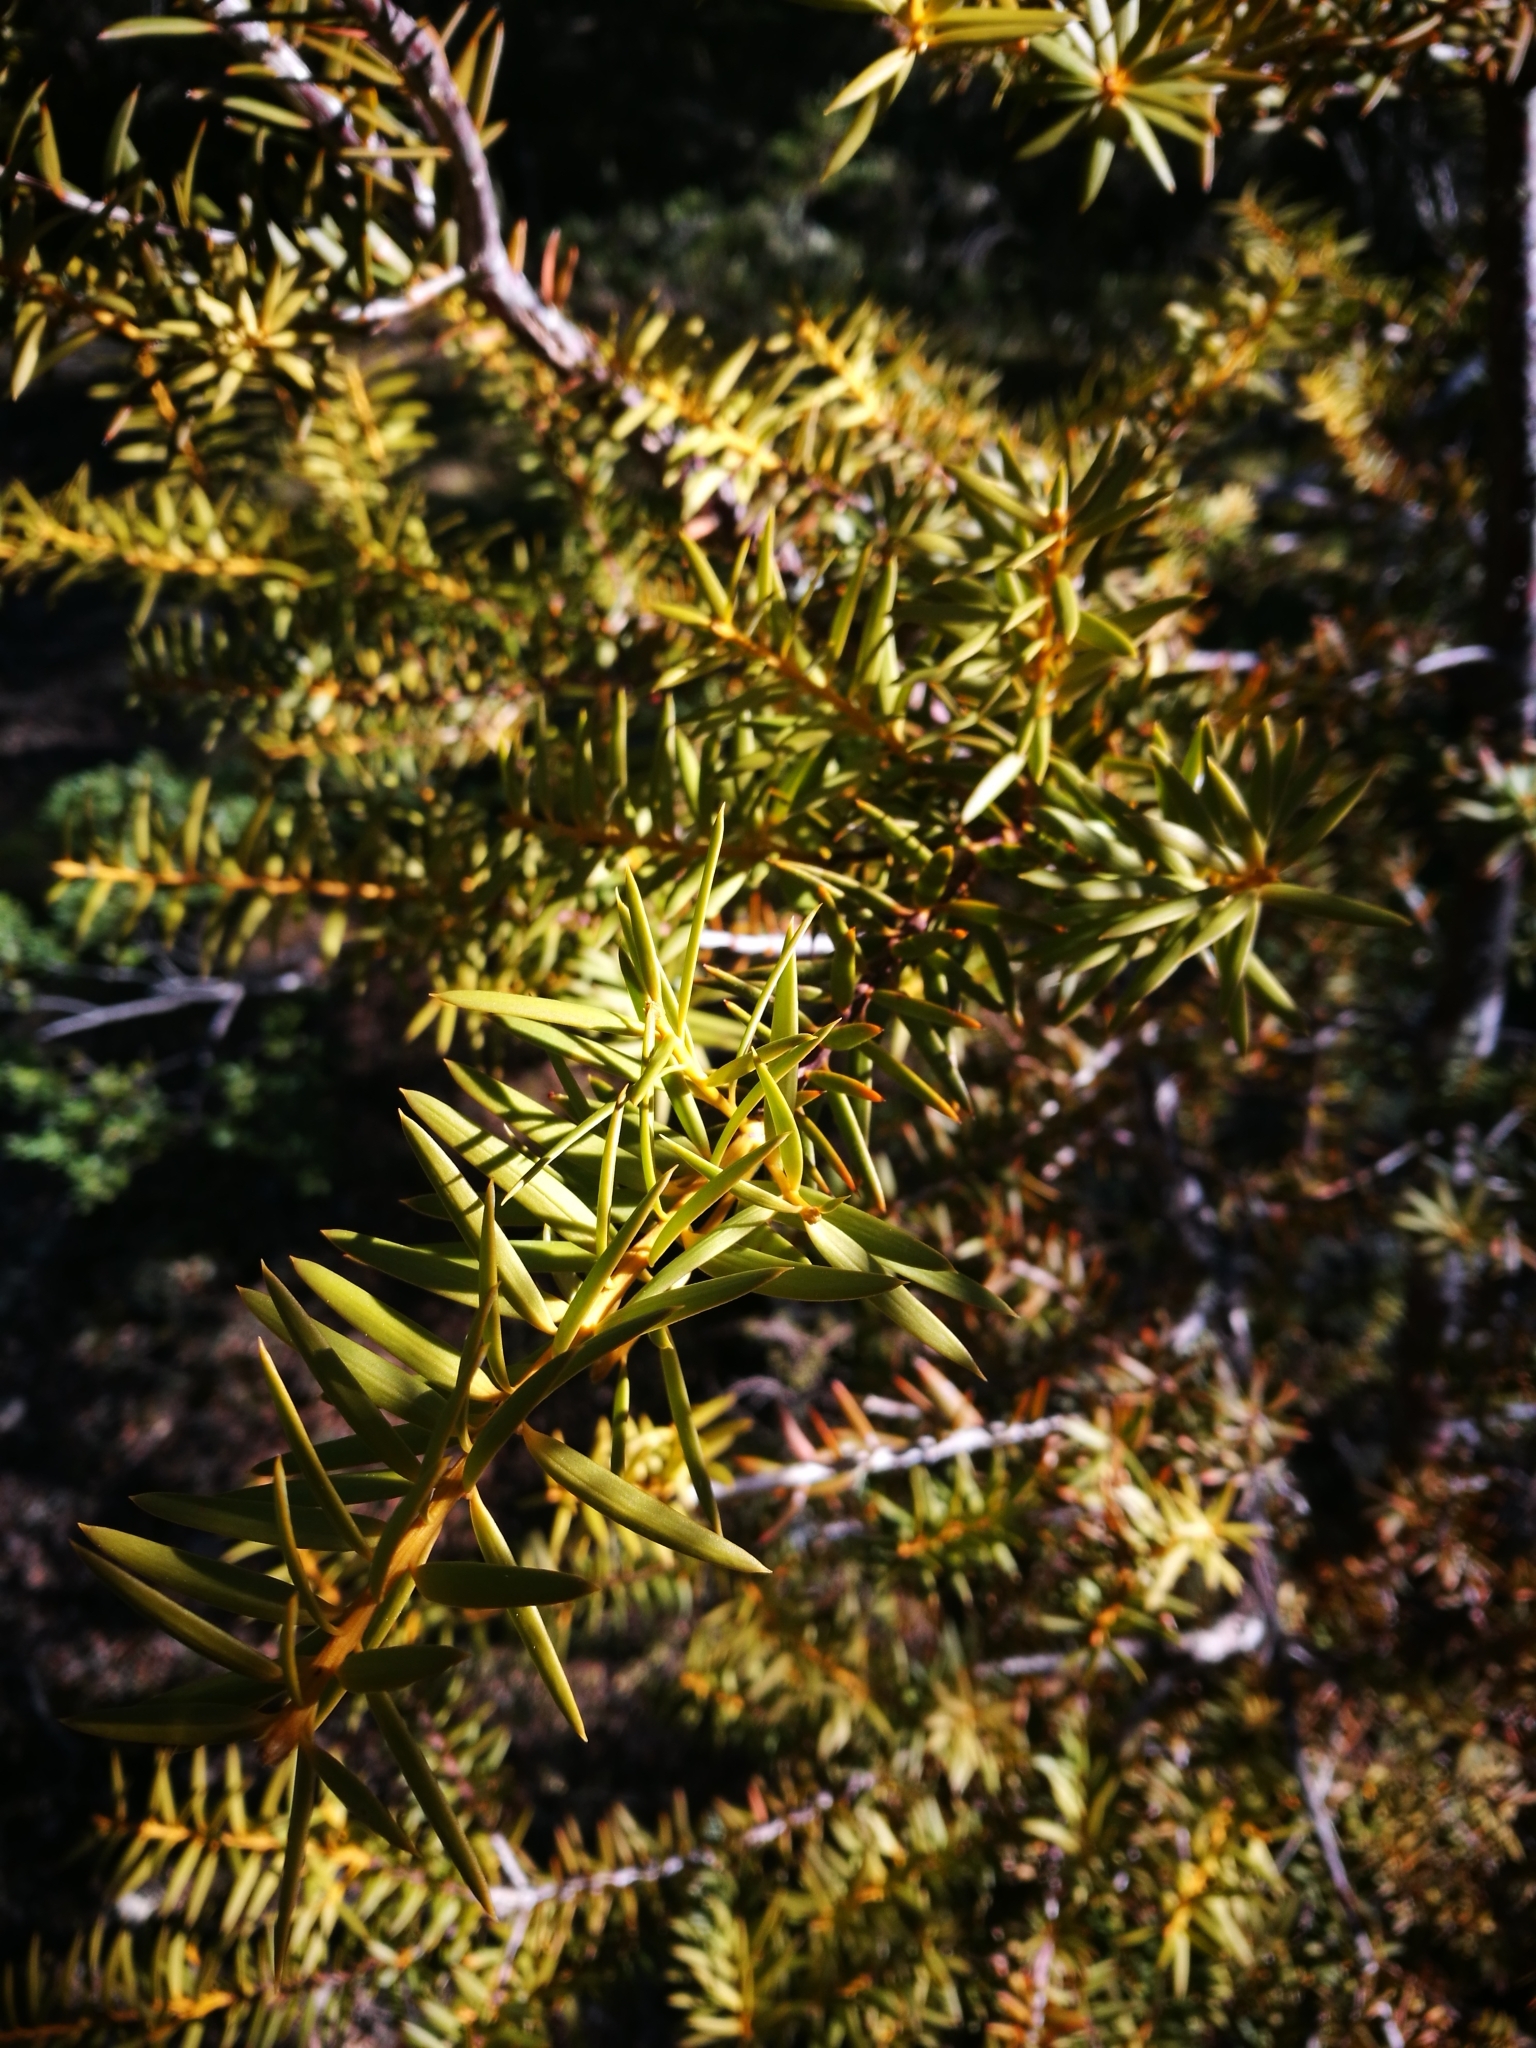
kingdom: Plantae
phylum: Tracheophyta
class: Pinopsida
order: Pinales
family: Podocarpaceae
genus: Podocarpus
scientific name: Podocarpus totara
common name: Totara
